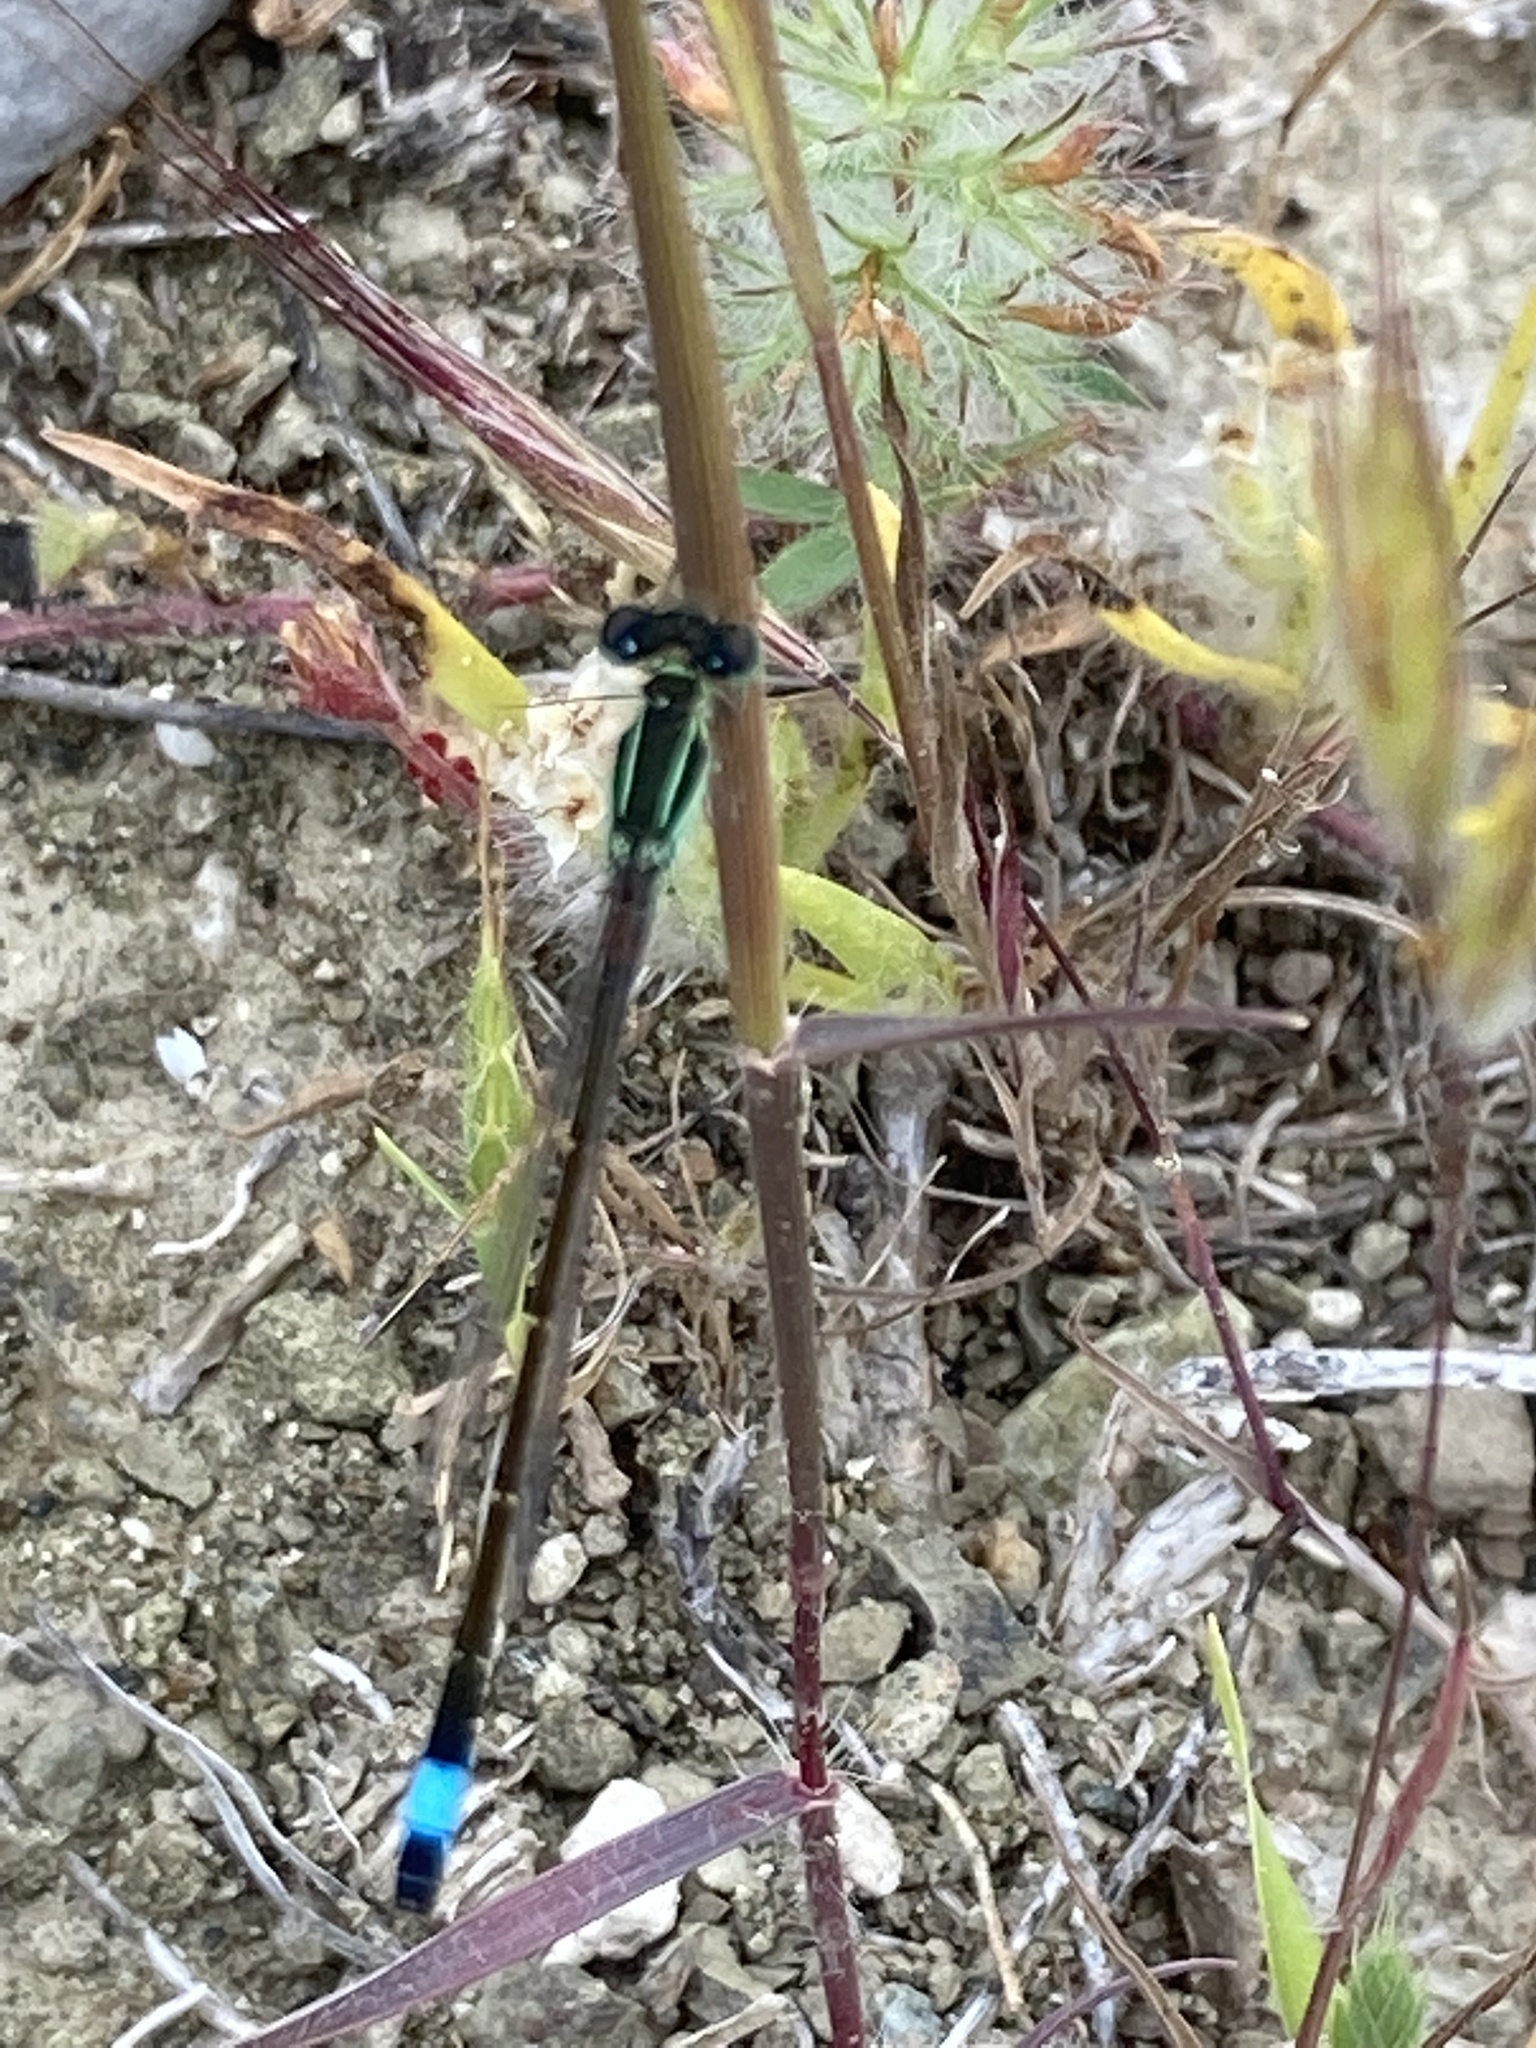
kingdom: Animalia
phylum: Arthropoda
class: Insecta
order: Odonata
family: Coenagrionidae
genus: Ischnura
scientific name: Ischnura elegans
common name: Blue-tailed damselfly
